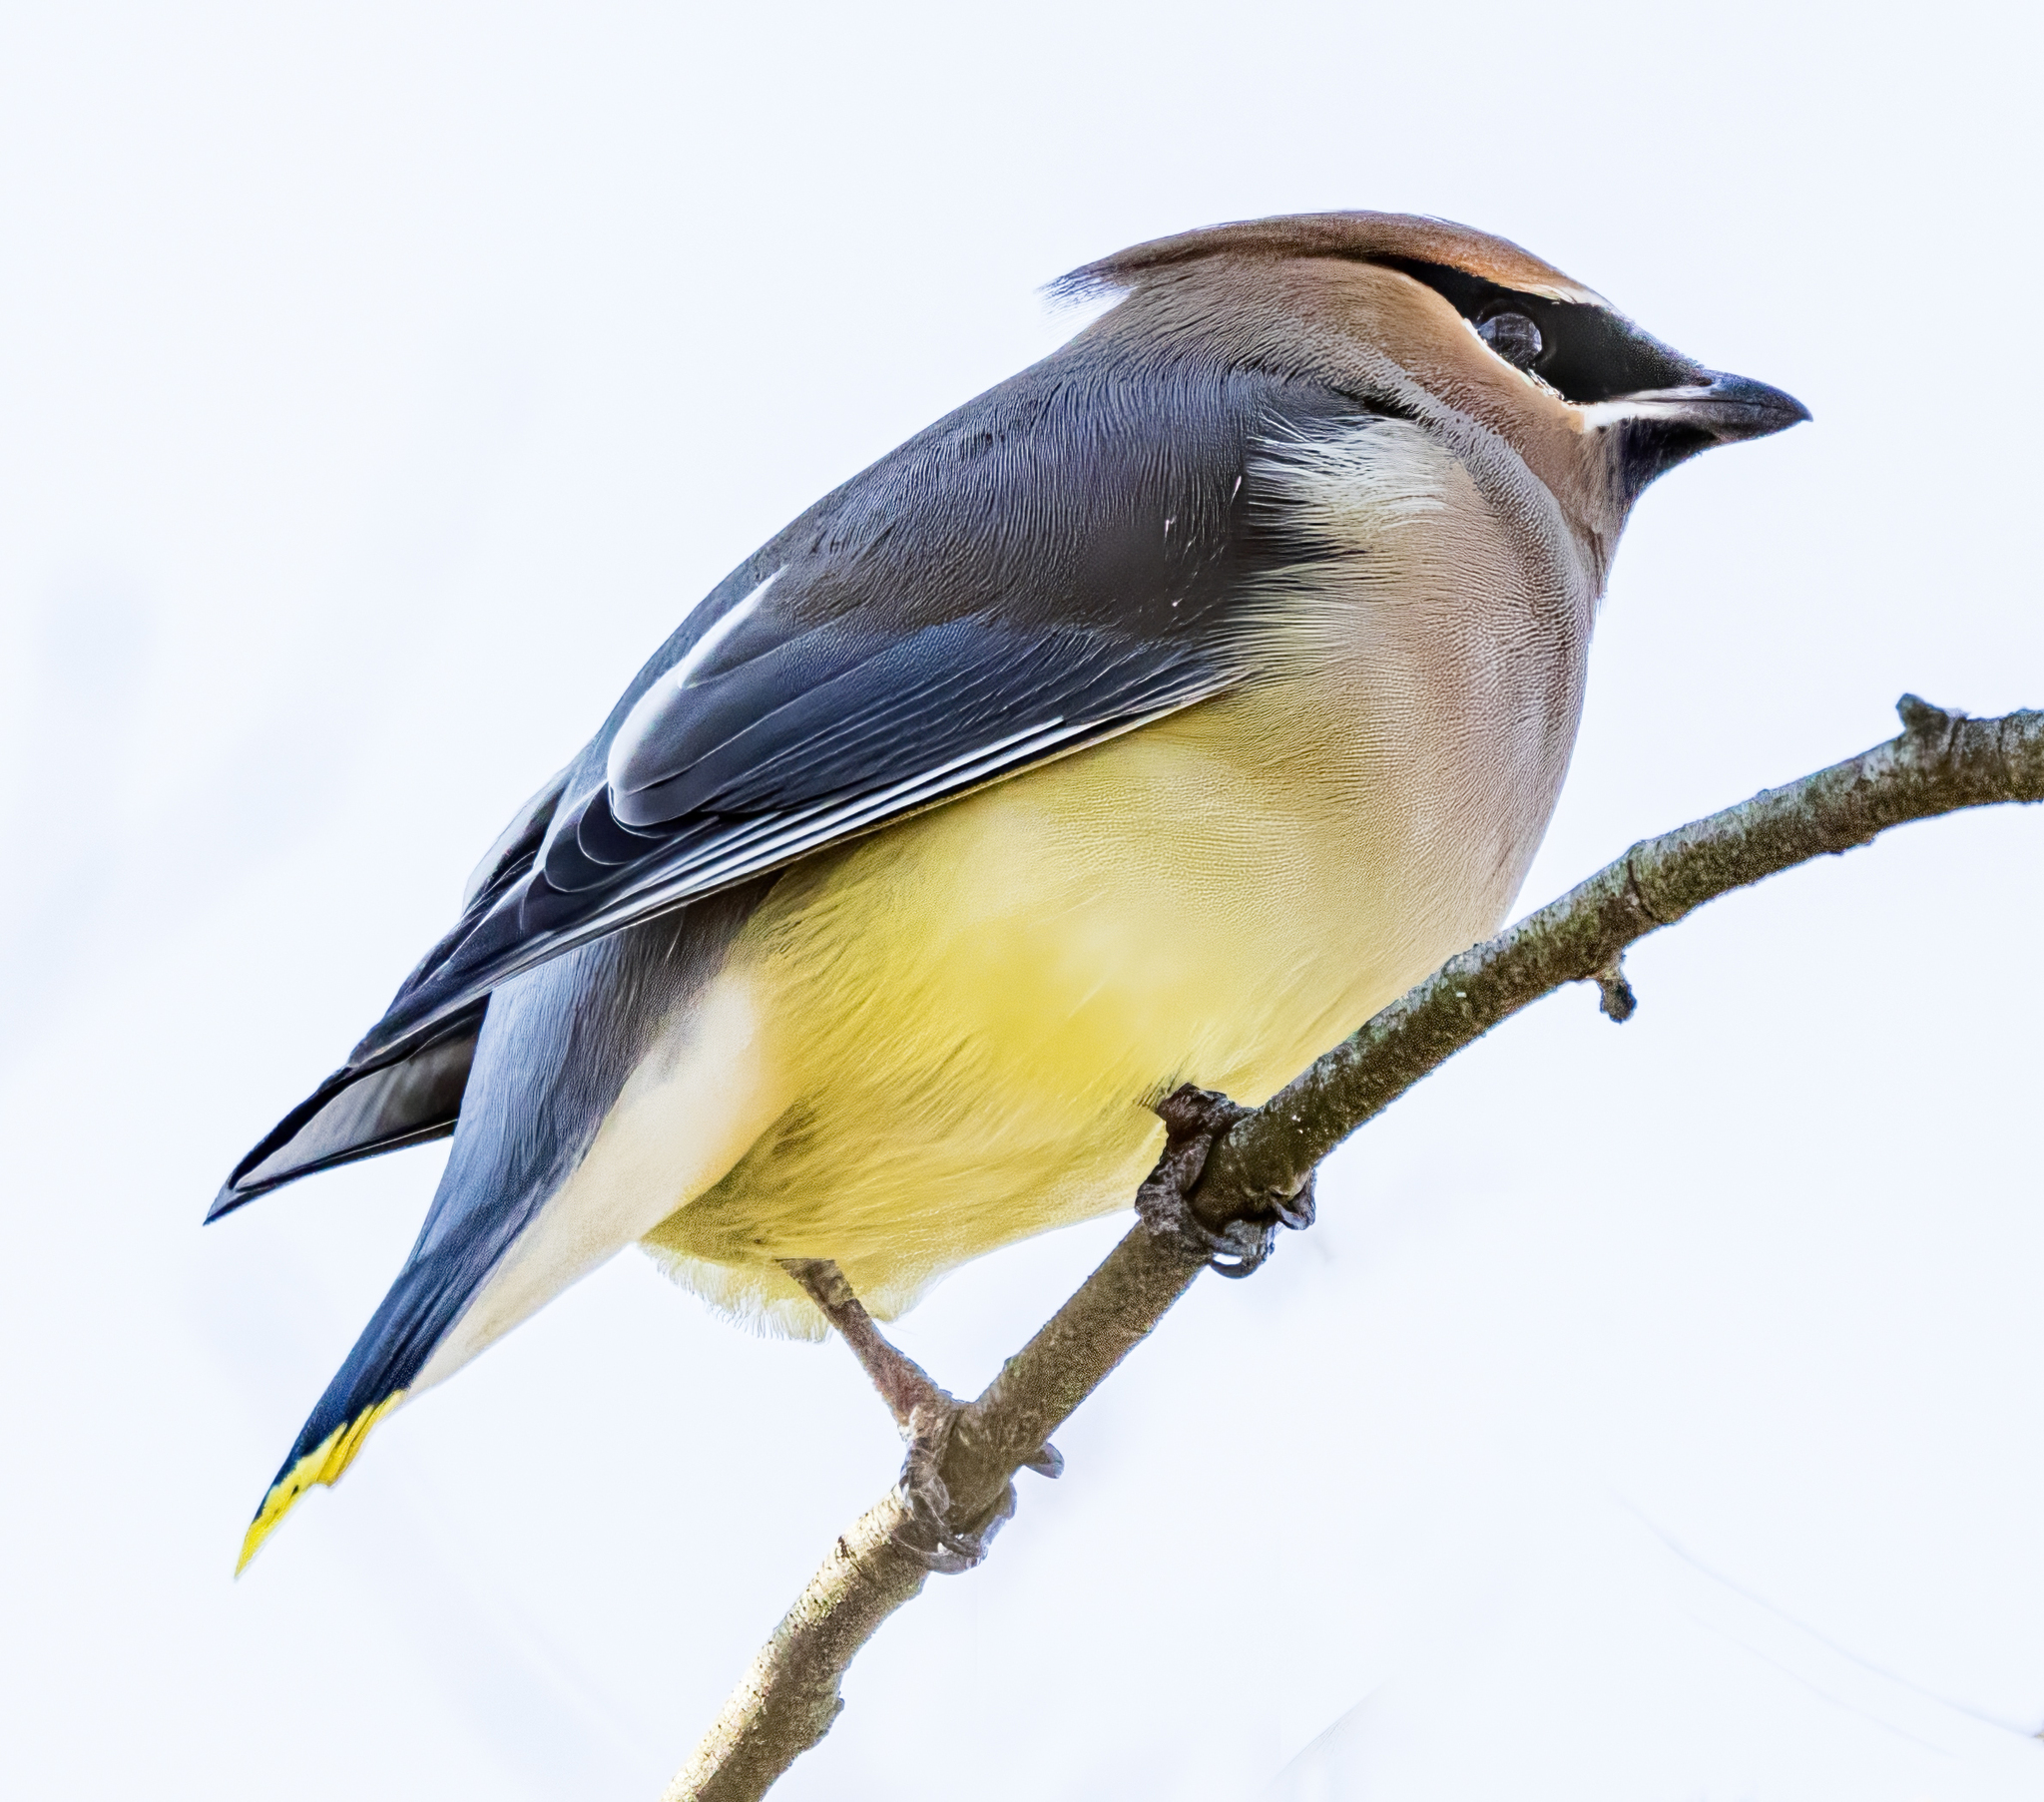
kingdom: Animalia
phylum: Chordata
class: Aves
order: Passeriformes
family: Bombycillidae
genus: Bombycilla
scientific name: Bombycilla cedrorum
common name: Cedar waxwing
